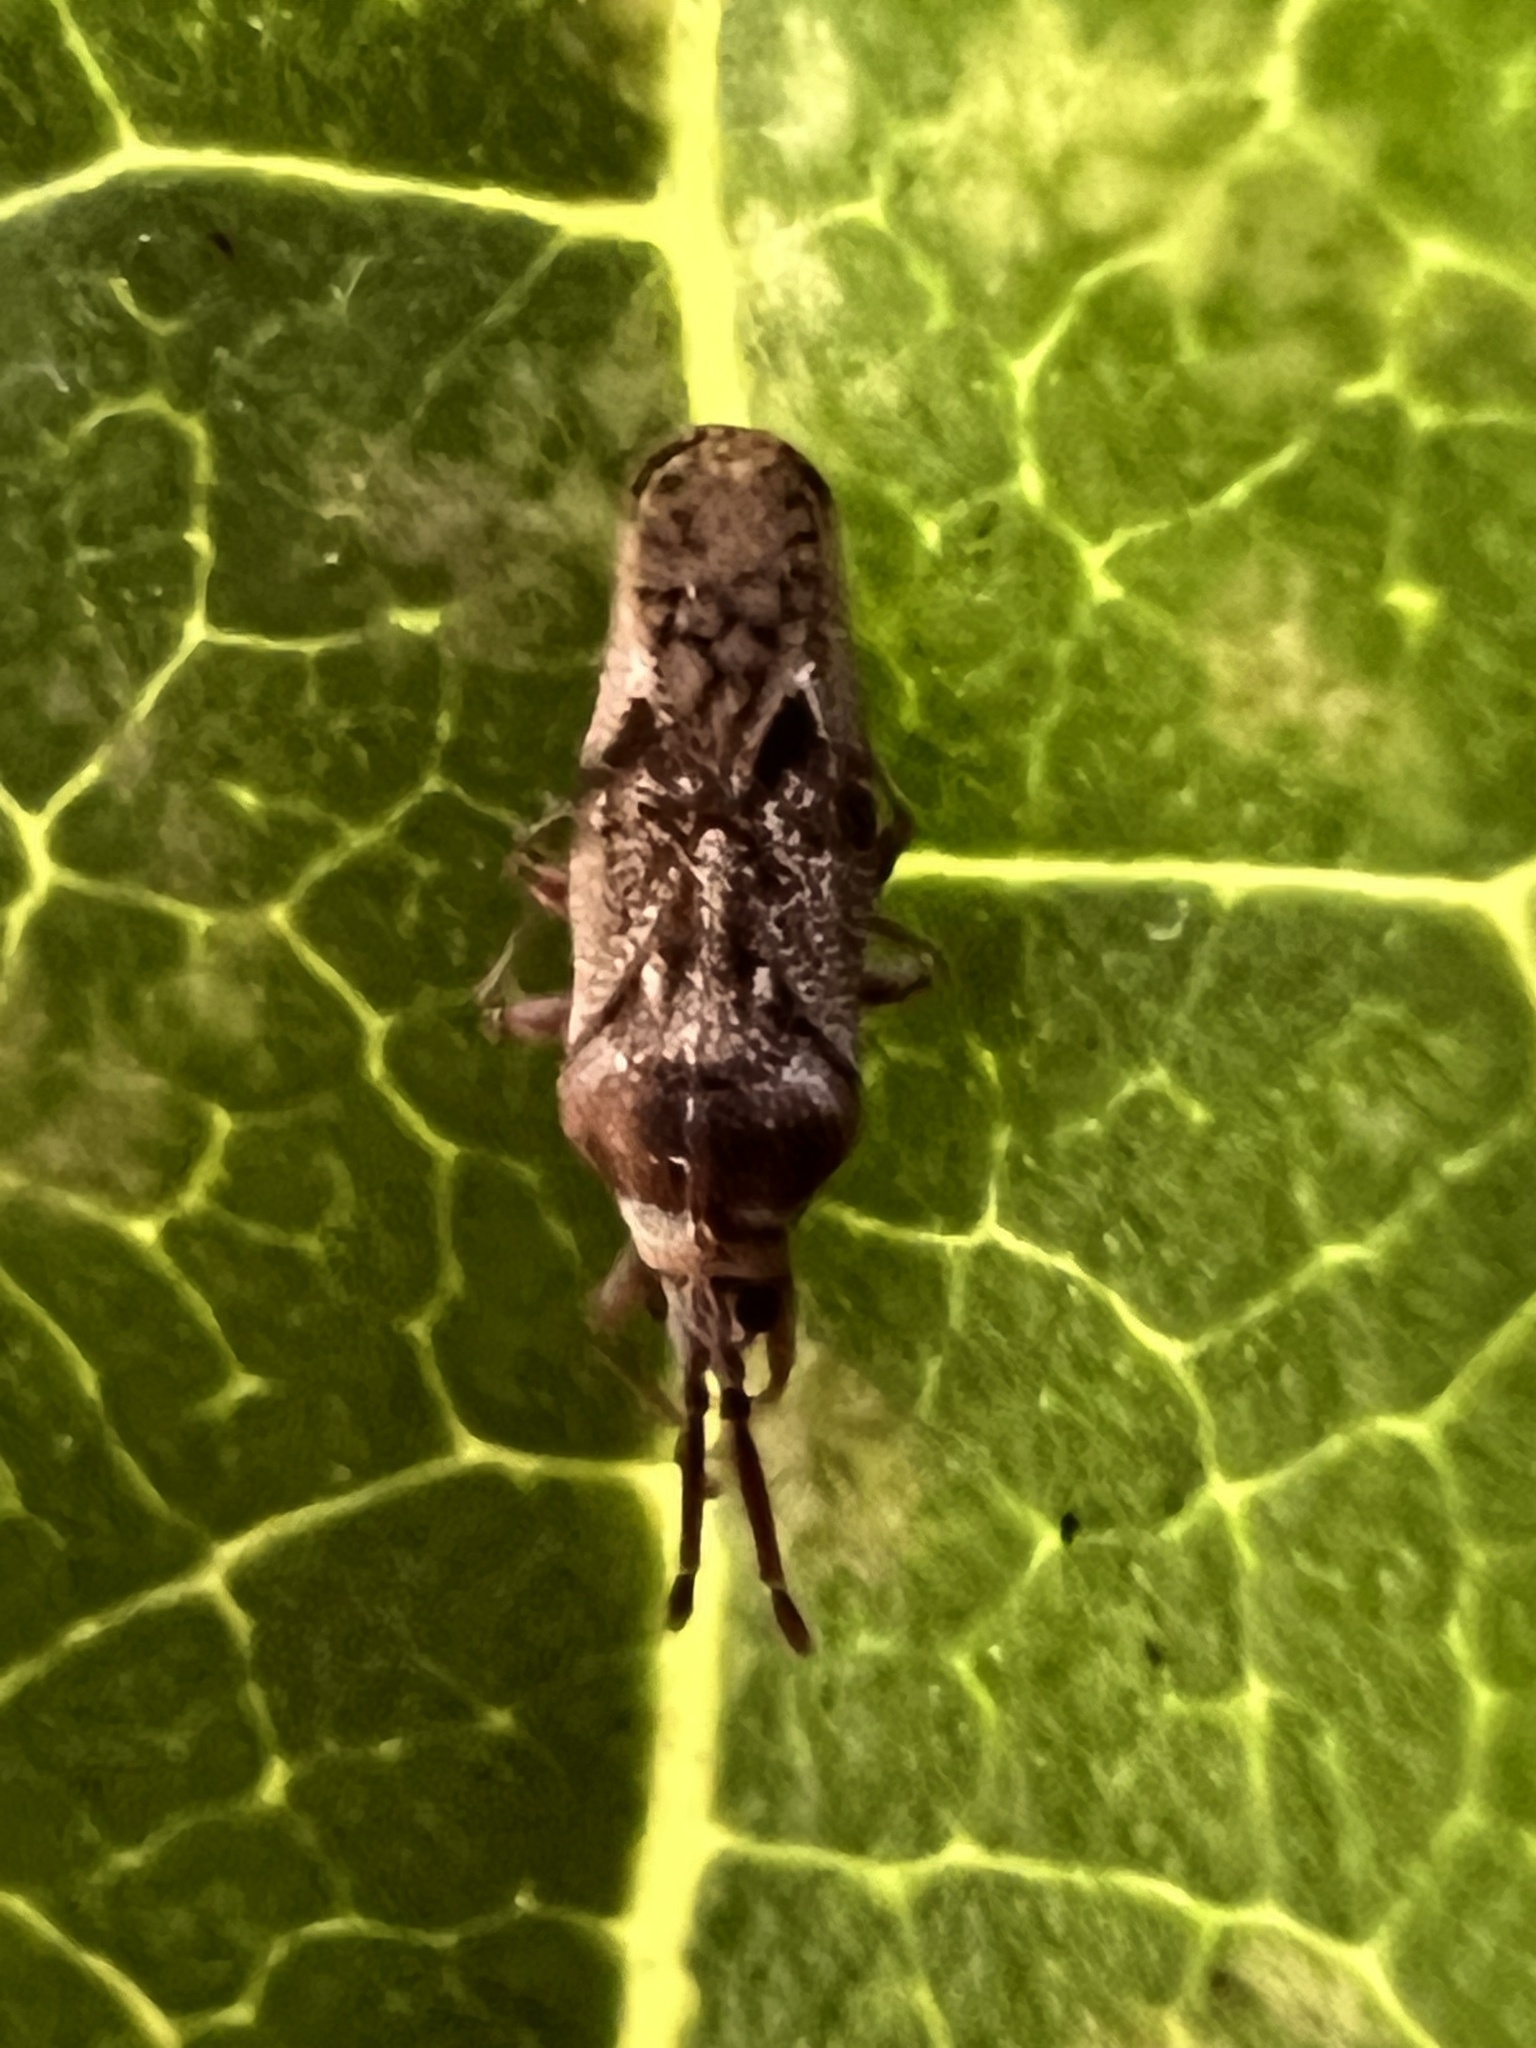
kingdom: Animalia
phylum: Arthropoda
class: Insecta
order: Hemiptera
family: Tingidae
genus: Leptoypha
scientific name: Leptoypha mutica
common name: Fringetree lace bug
